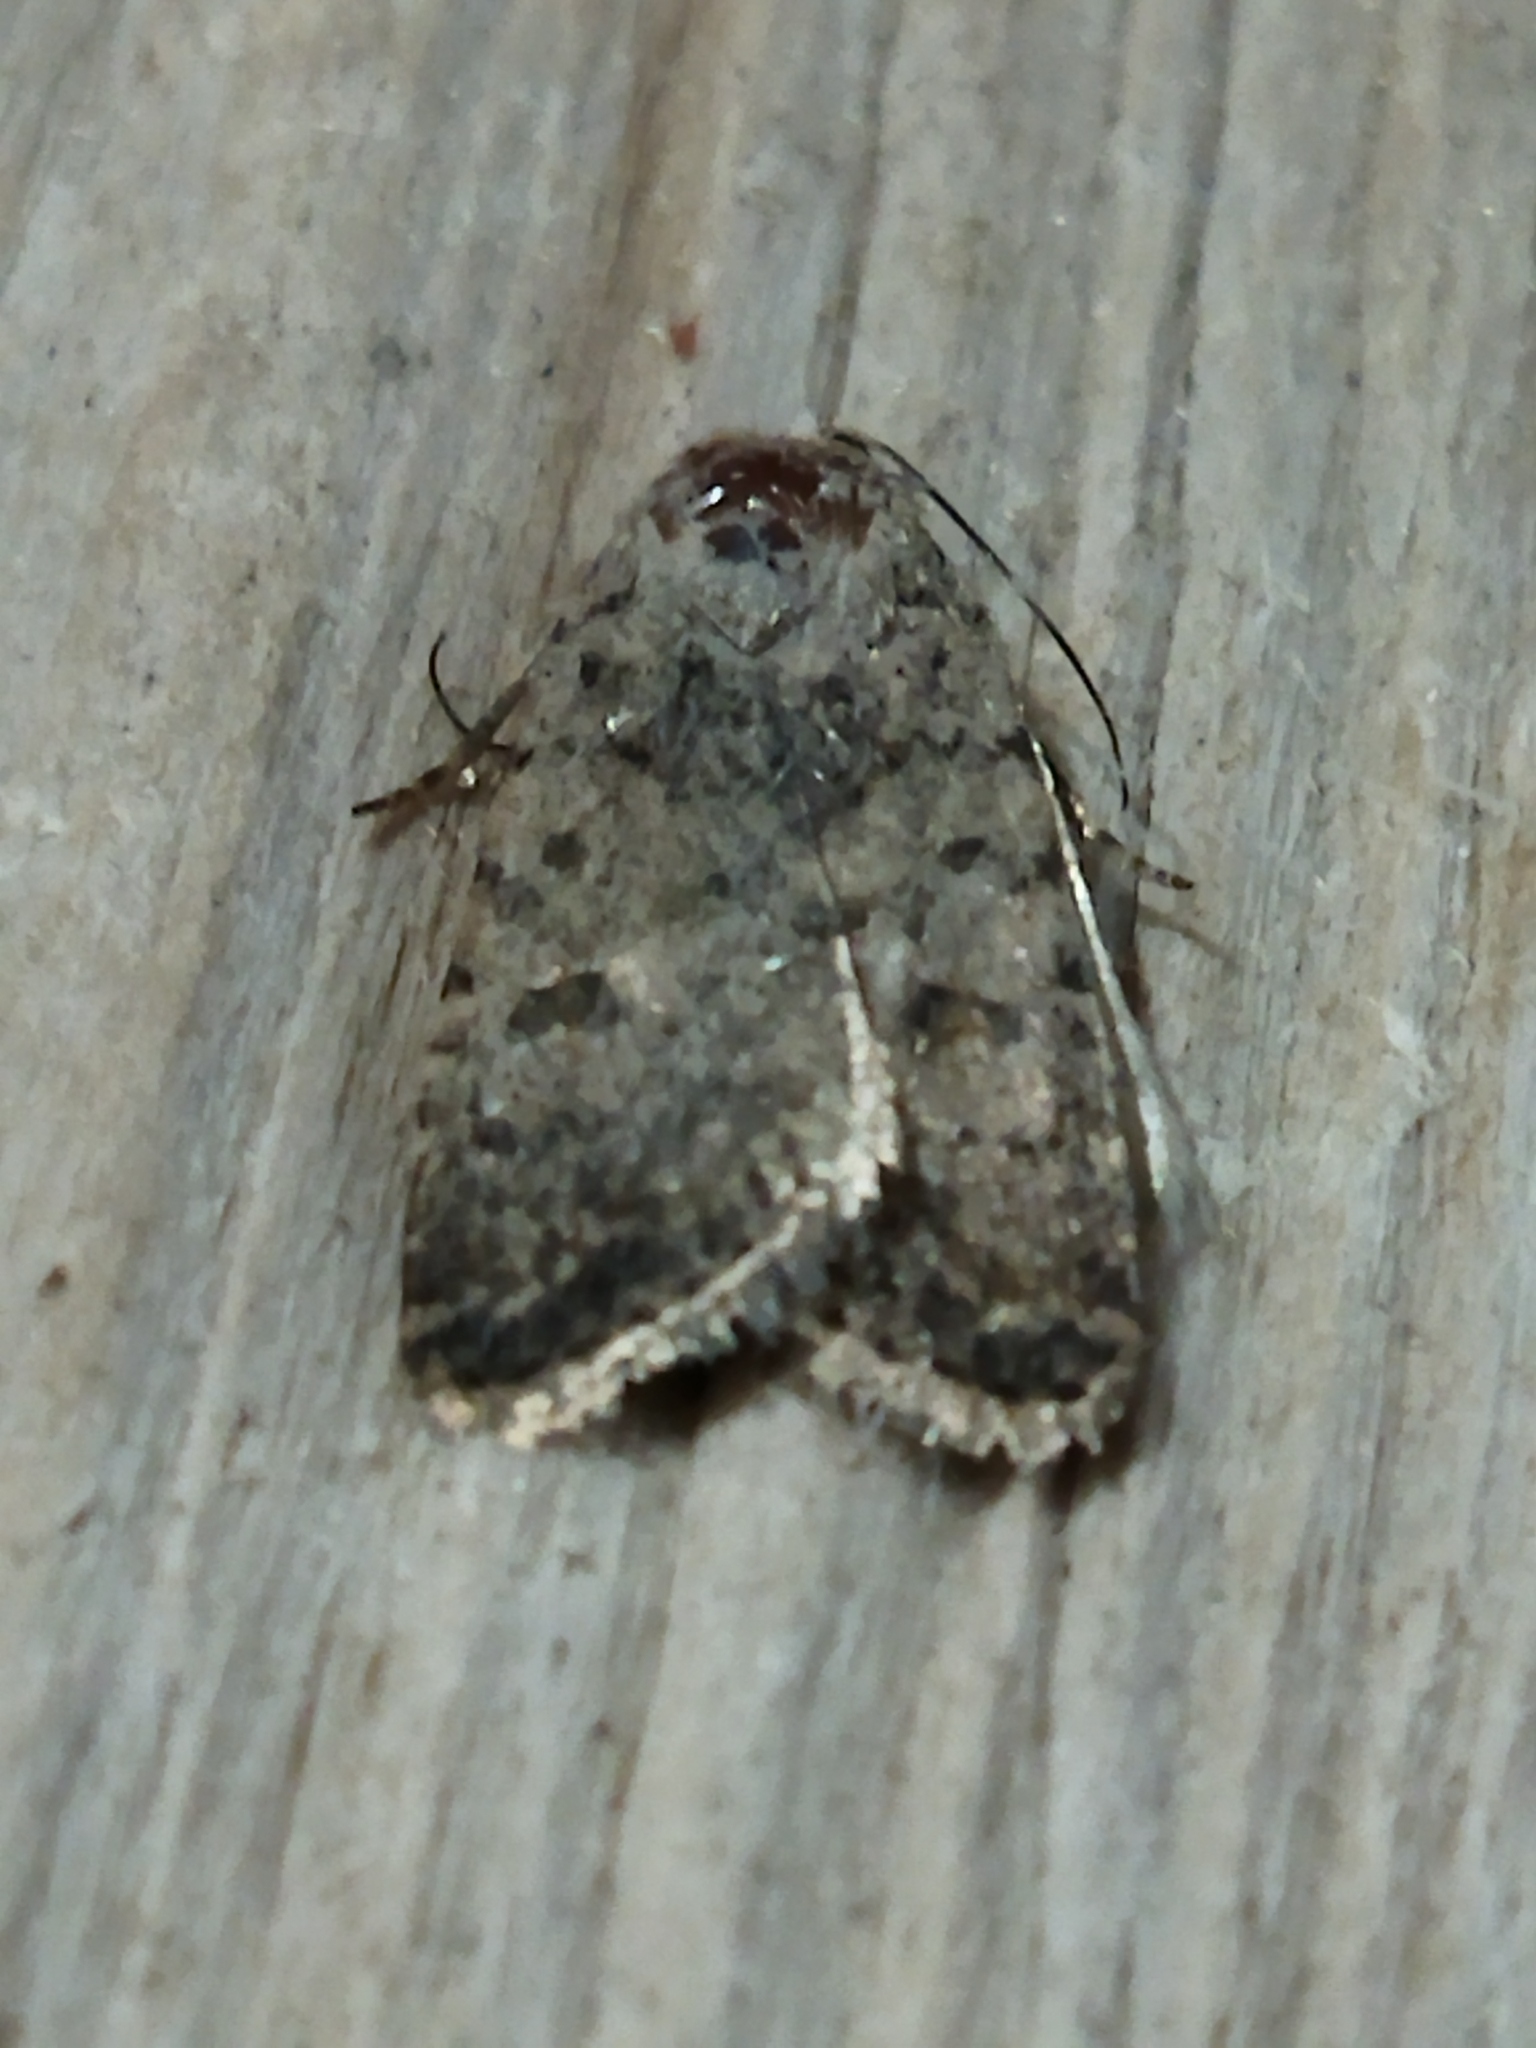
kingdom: Animalia
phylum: Arthropoda
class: Insecta
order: Lepidoptera
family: Noctuidae
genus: Caradrina
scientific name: Caradrina clavipalpis
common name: Pale mottled willow
